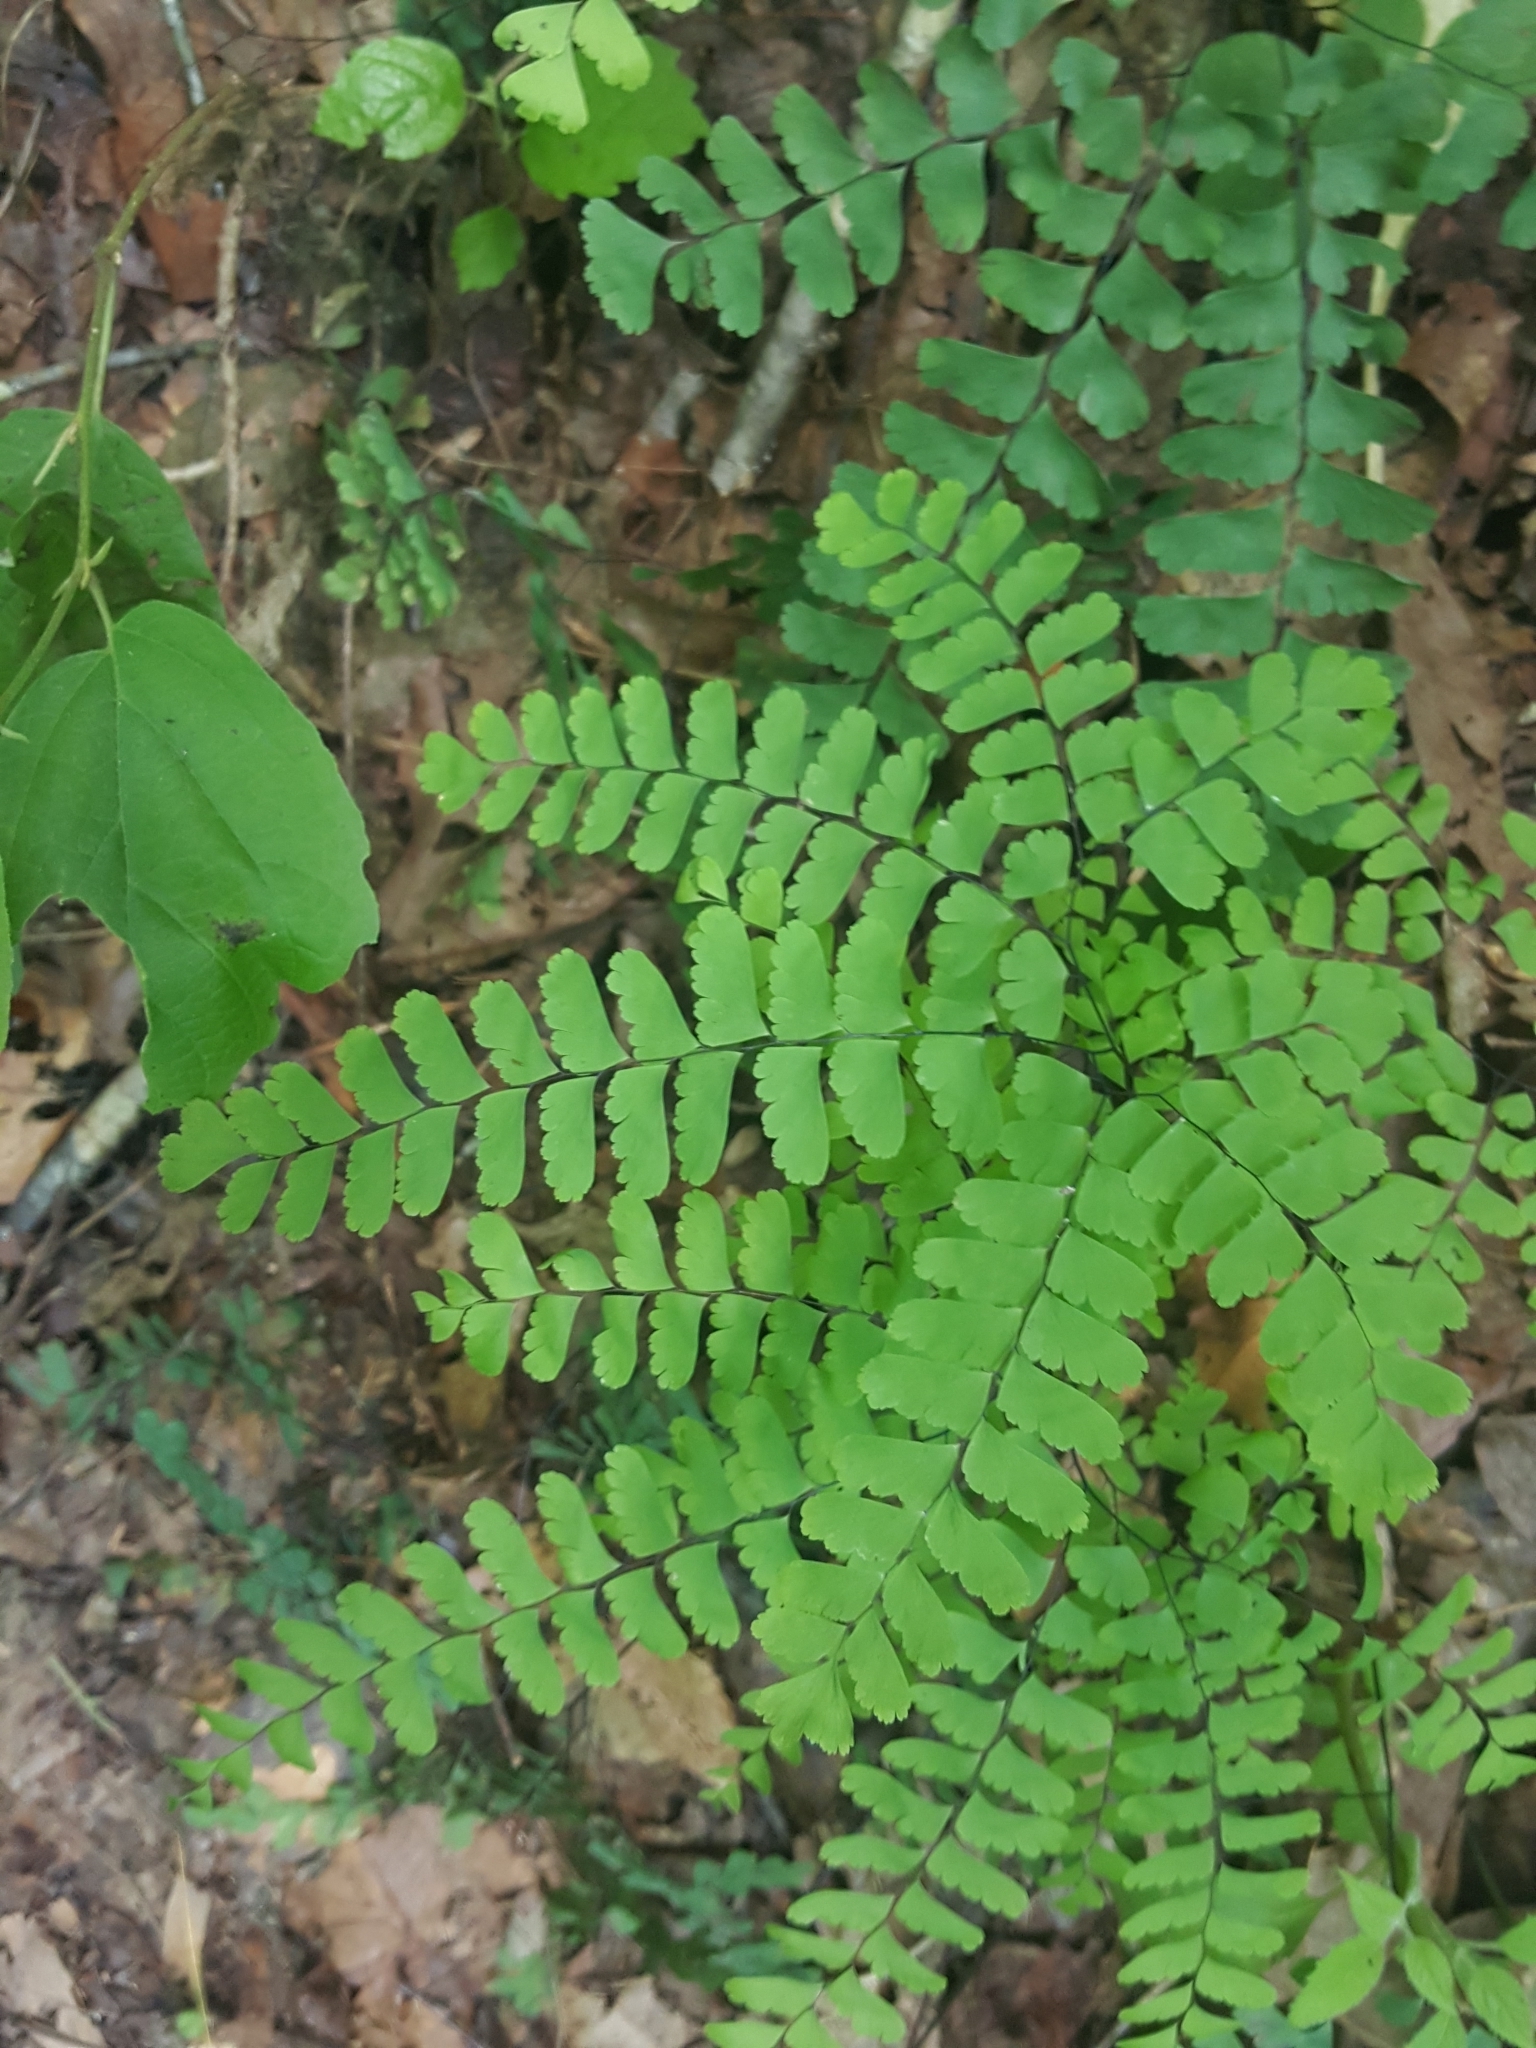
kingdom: Plantae
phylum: Tracheophyta
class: Polypodiopsida
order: Polypodiales
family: Pteridaceae
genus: Adiantum
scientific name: Adiantum pedatum
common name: Five-finger fern
